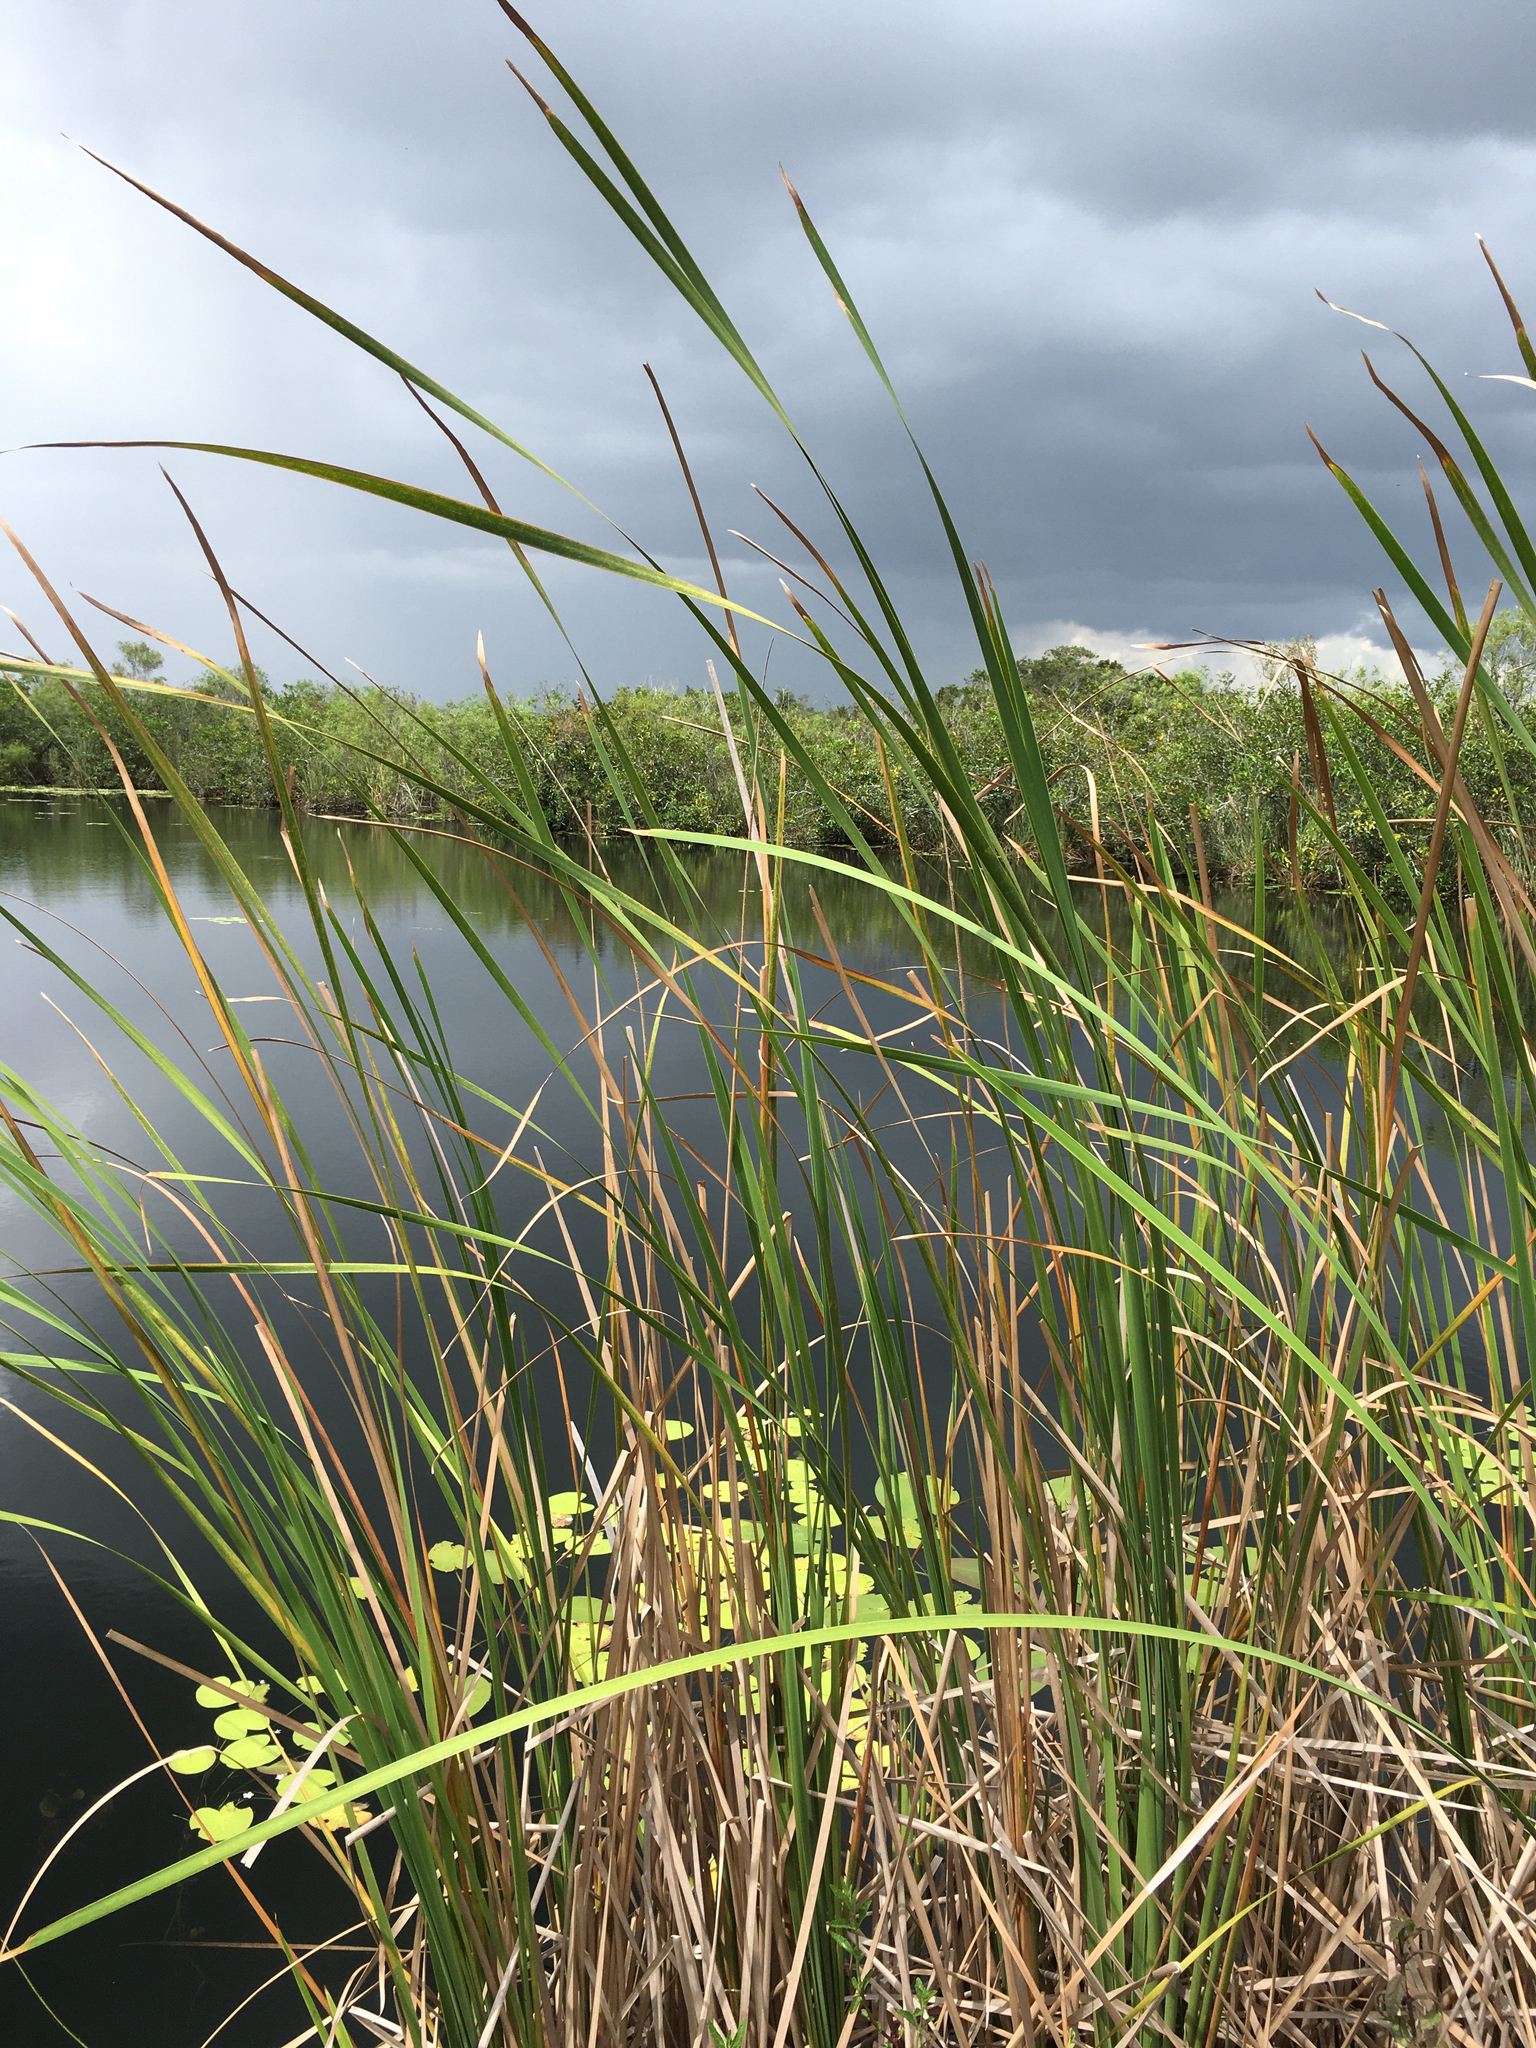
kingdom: Plantae
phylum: Tracheophyta
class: Liliopsida
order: Poales
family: Typhaceae
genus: Typha
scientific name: Typha domingensis
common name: Southern cattail
